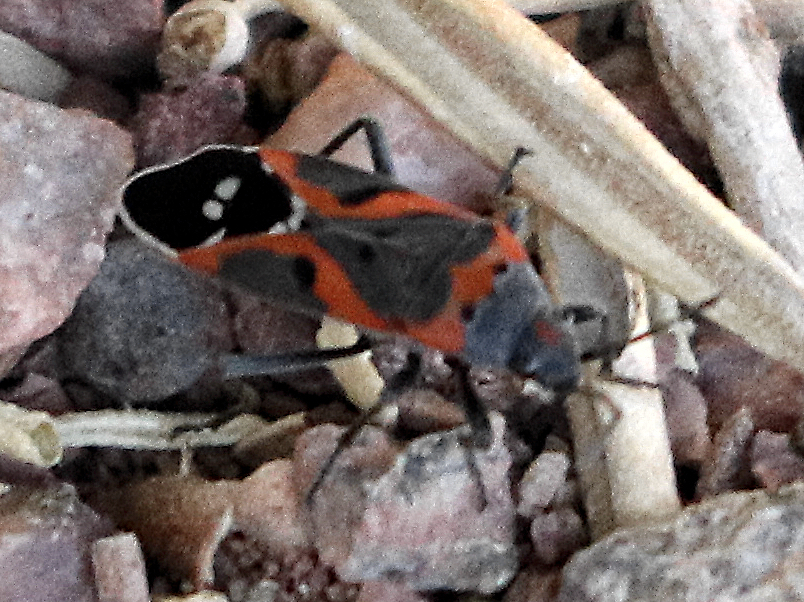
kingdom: Animalia
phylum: Arthropoda
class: Insecta
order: Hemiptera
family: Lygaeidae
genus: Lygaeus
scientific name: Lygaeus kalmii
